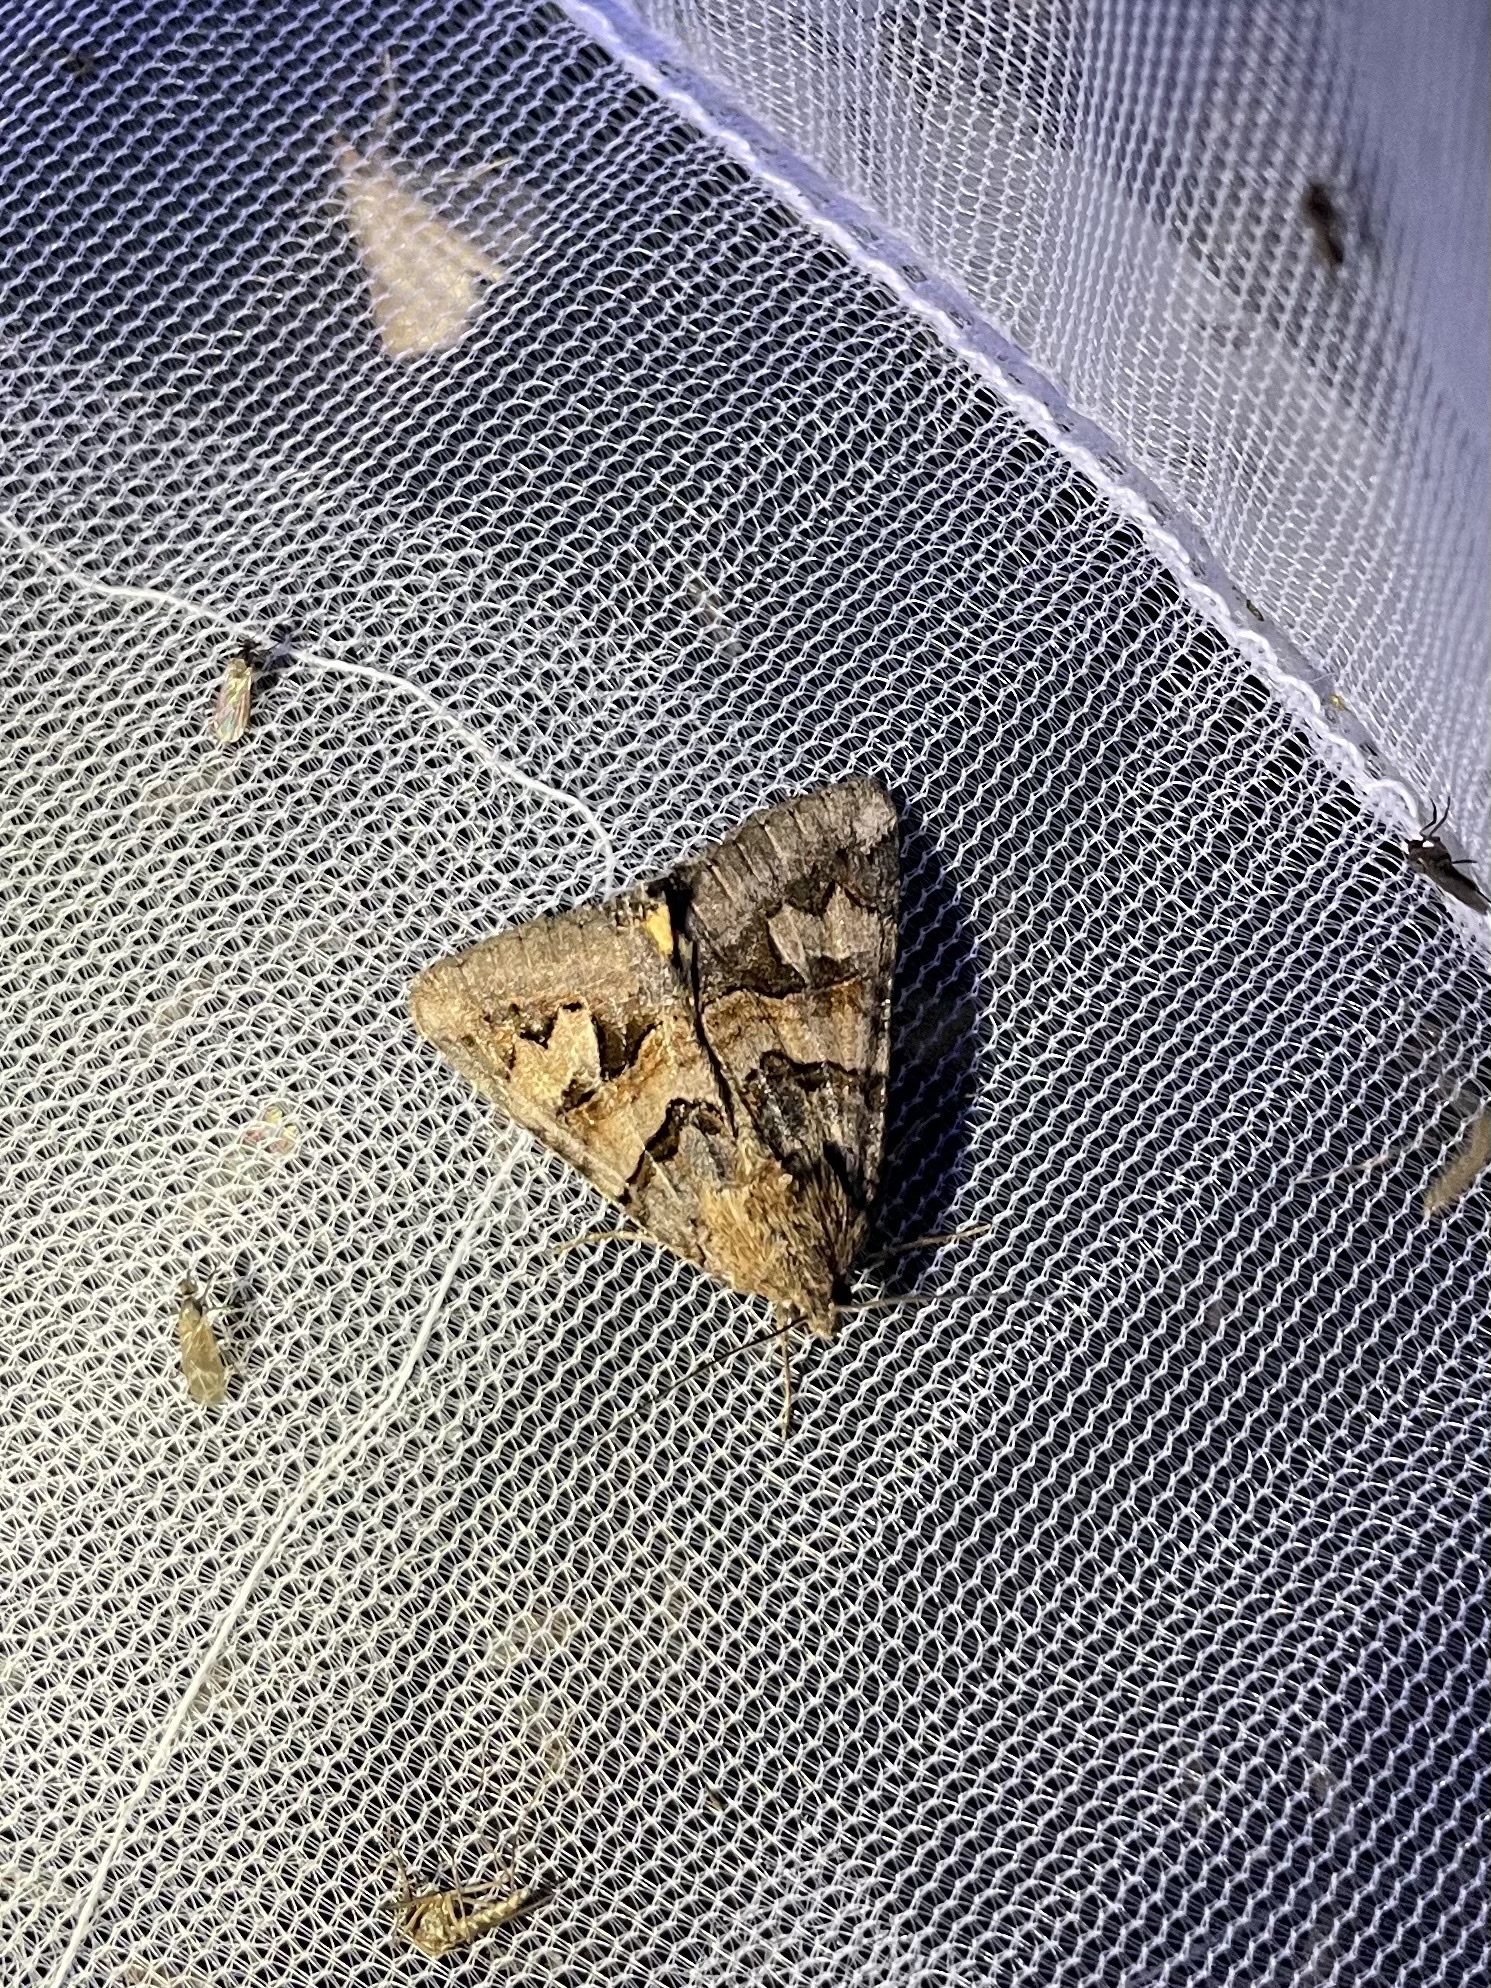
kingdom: Animalia
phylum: Arthropoda
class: Insecta
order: Lepidoptera
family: Erebidae
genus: Drasteria
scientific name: Drasteria adumbrata
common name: Shadowy arches
